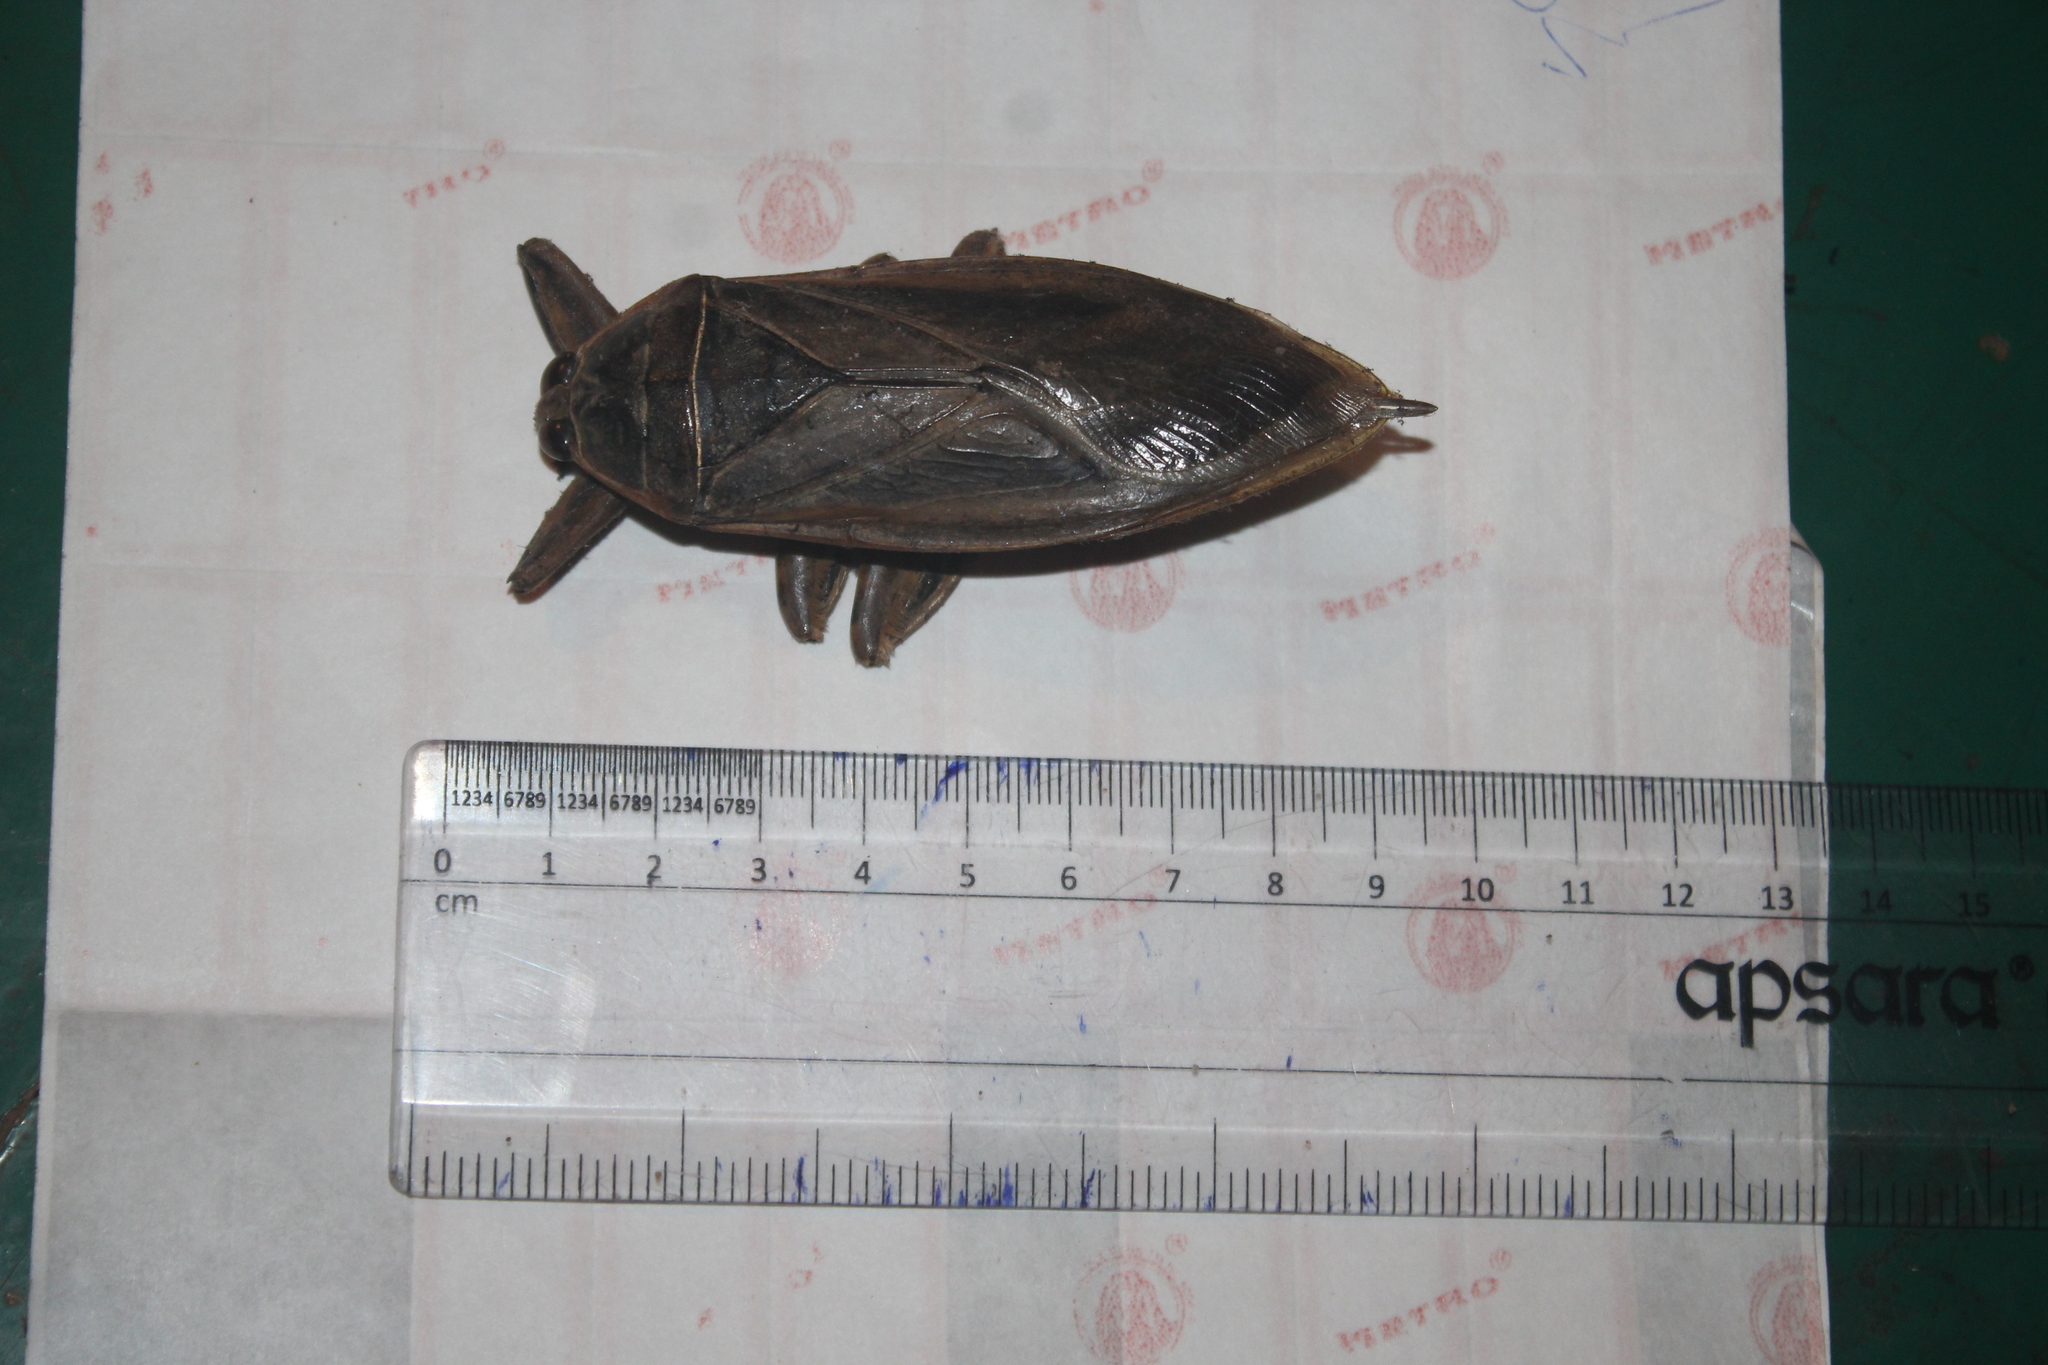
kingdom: Animalia
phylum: Arthropoda
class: Insecta
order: Hemiptera
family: Belostomatidae
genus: Lethocerus
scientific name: Lethocerus indicus
